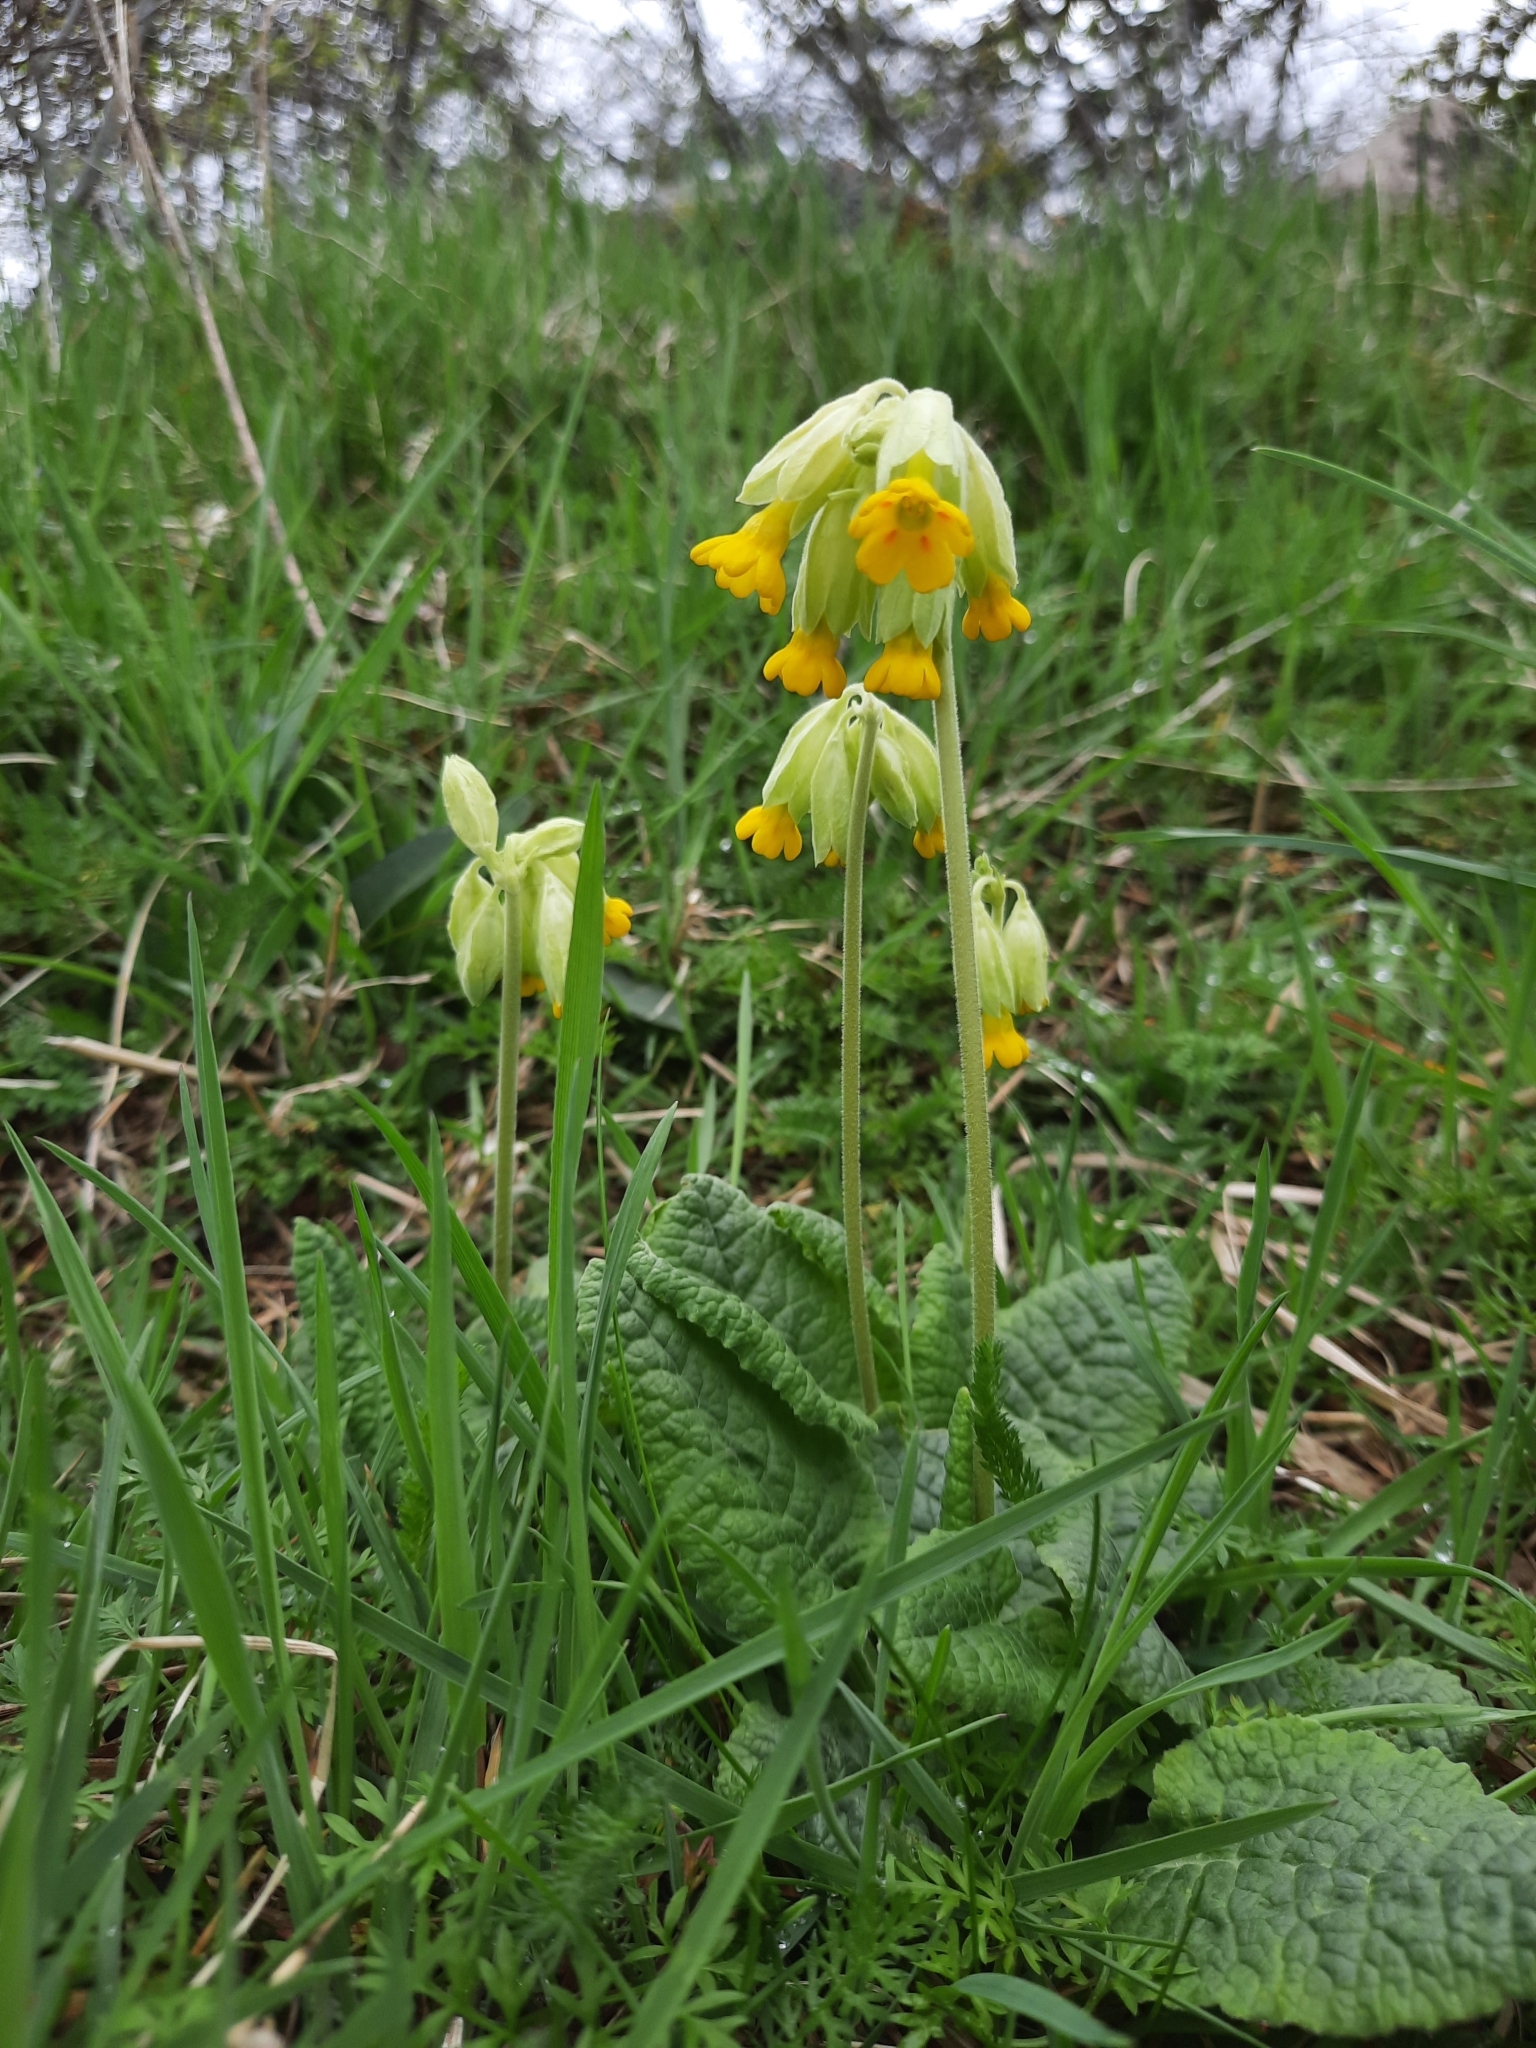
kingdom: Plantae
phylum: Tracheophyta
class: Magnoliopsida
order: Ericales
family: Primulaceae
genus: Primula
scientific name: Primula veris
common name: Cowslip
